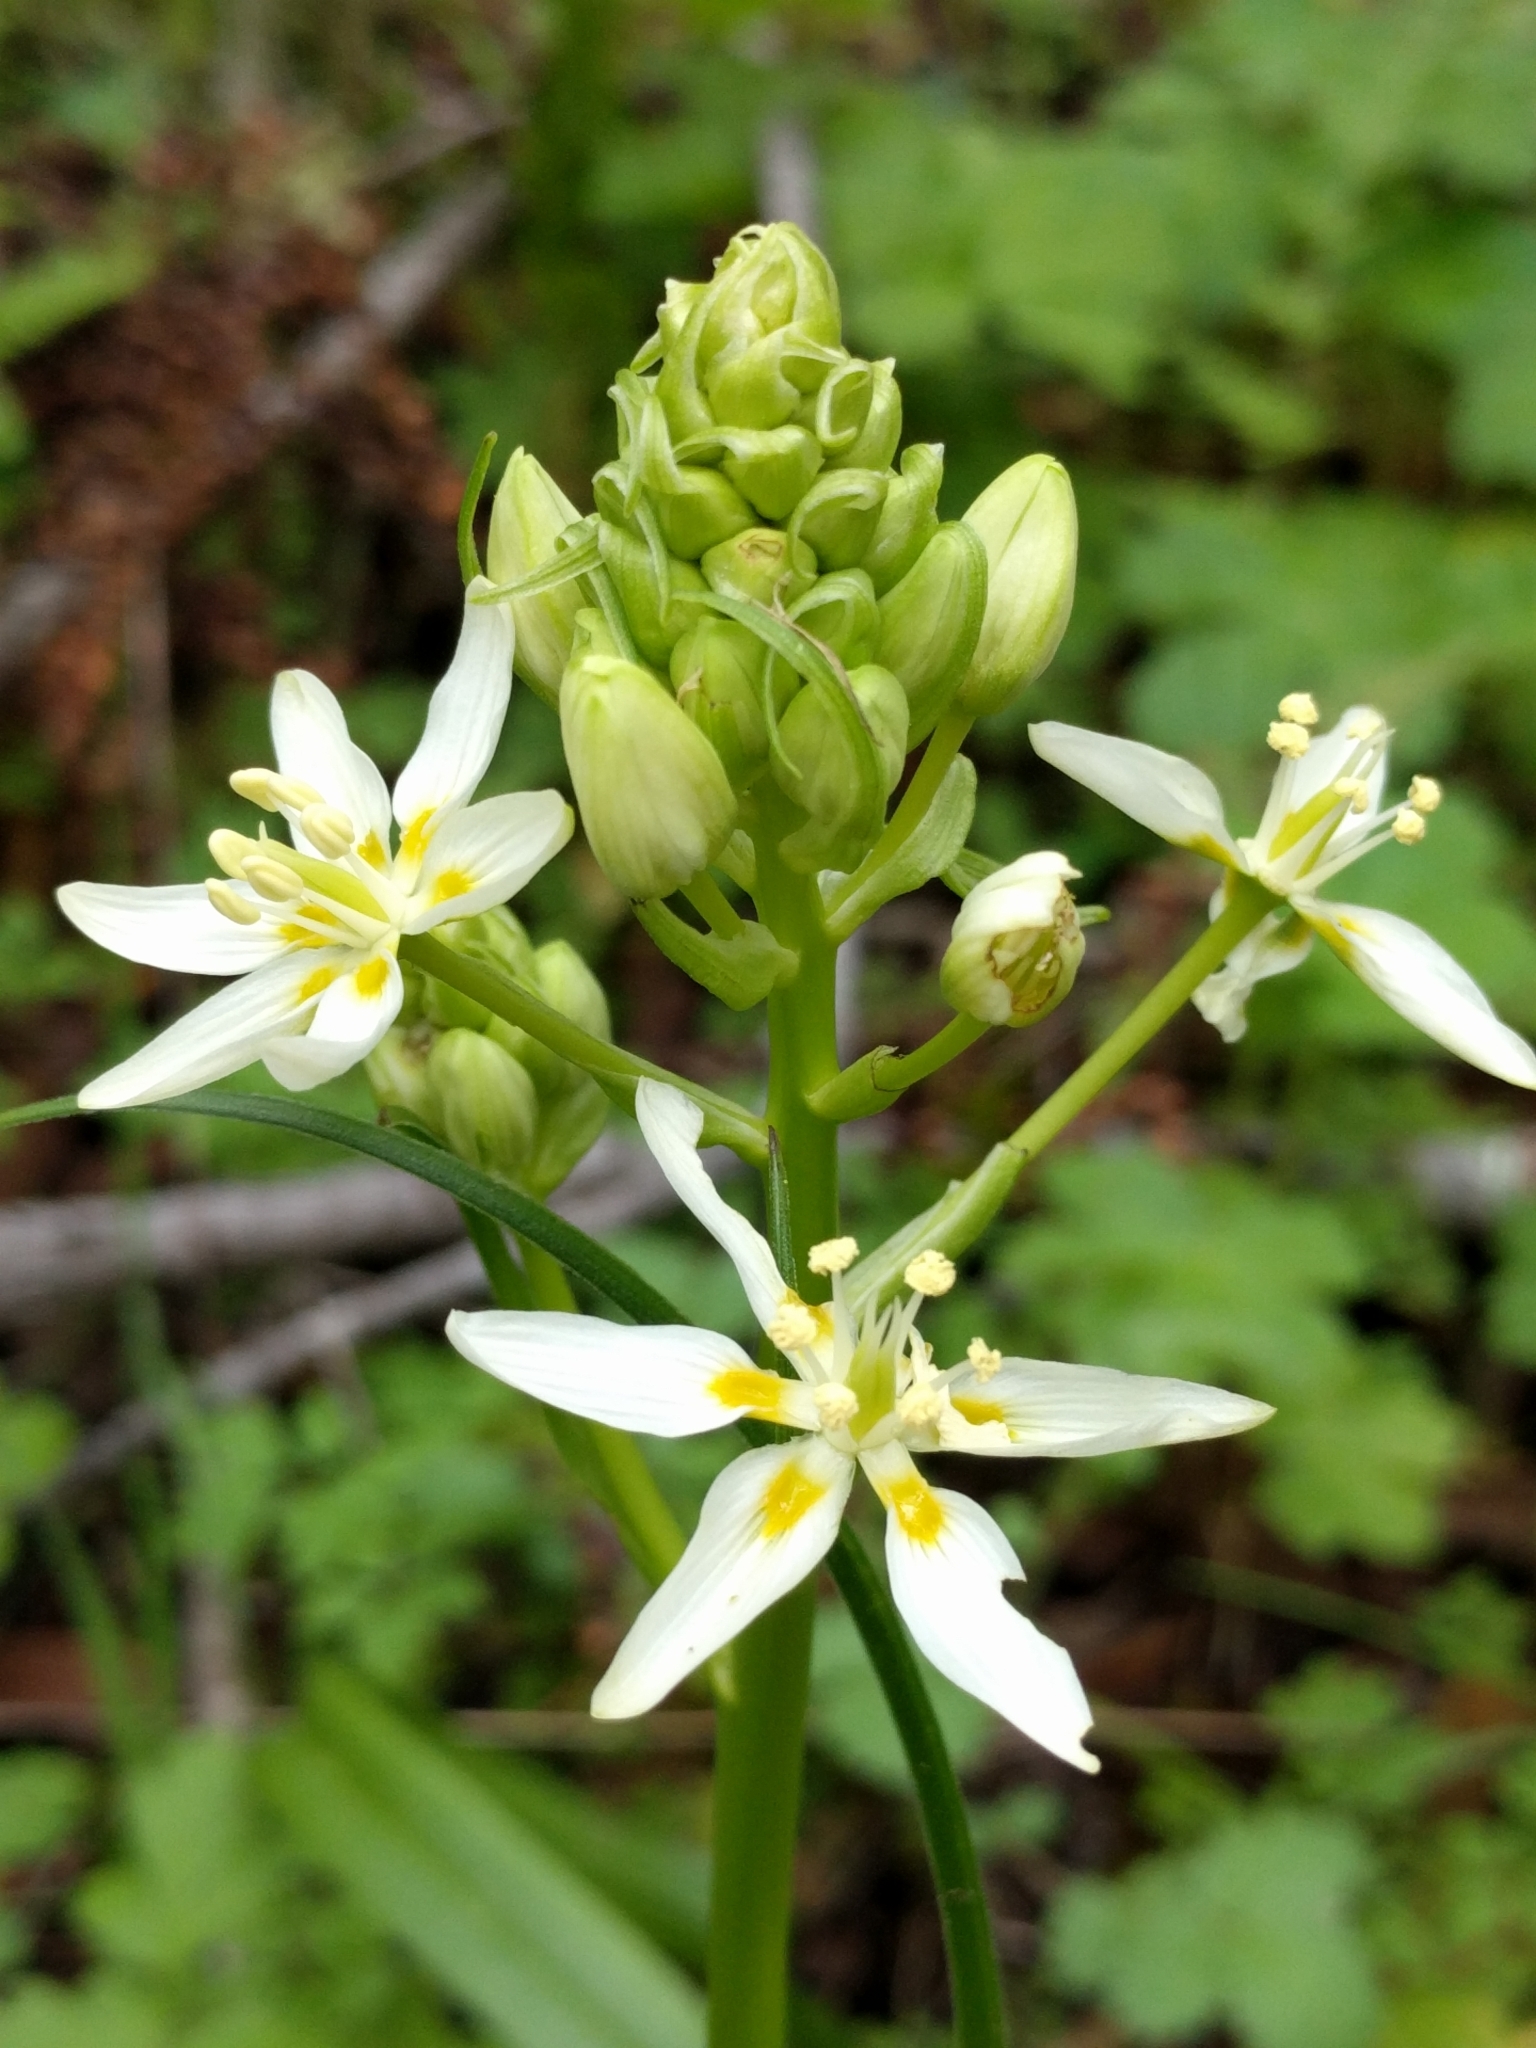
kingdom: Plantae
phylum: Tracheophyta
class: Liliopsida
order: Liliales
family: Melanthiaceae
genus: Toxicoscordion
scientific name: Toxicoscordion fremontii
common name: Fremont's death camas
